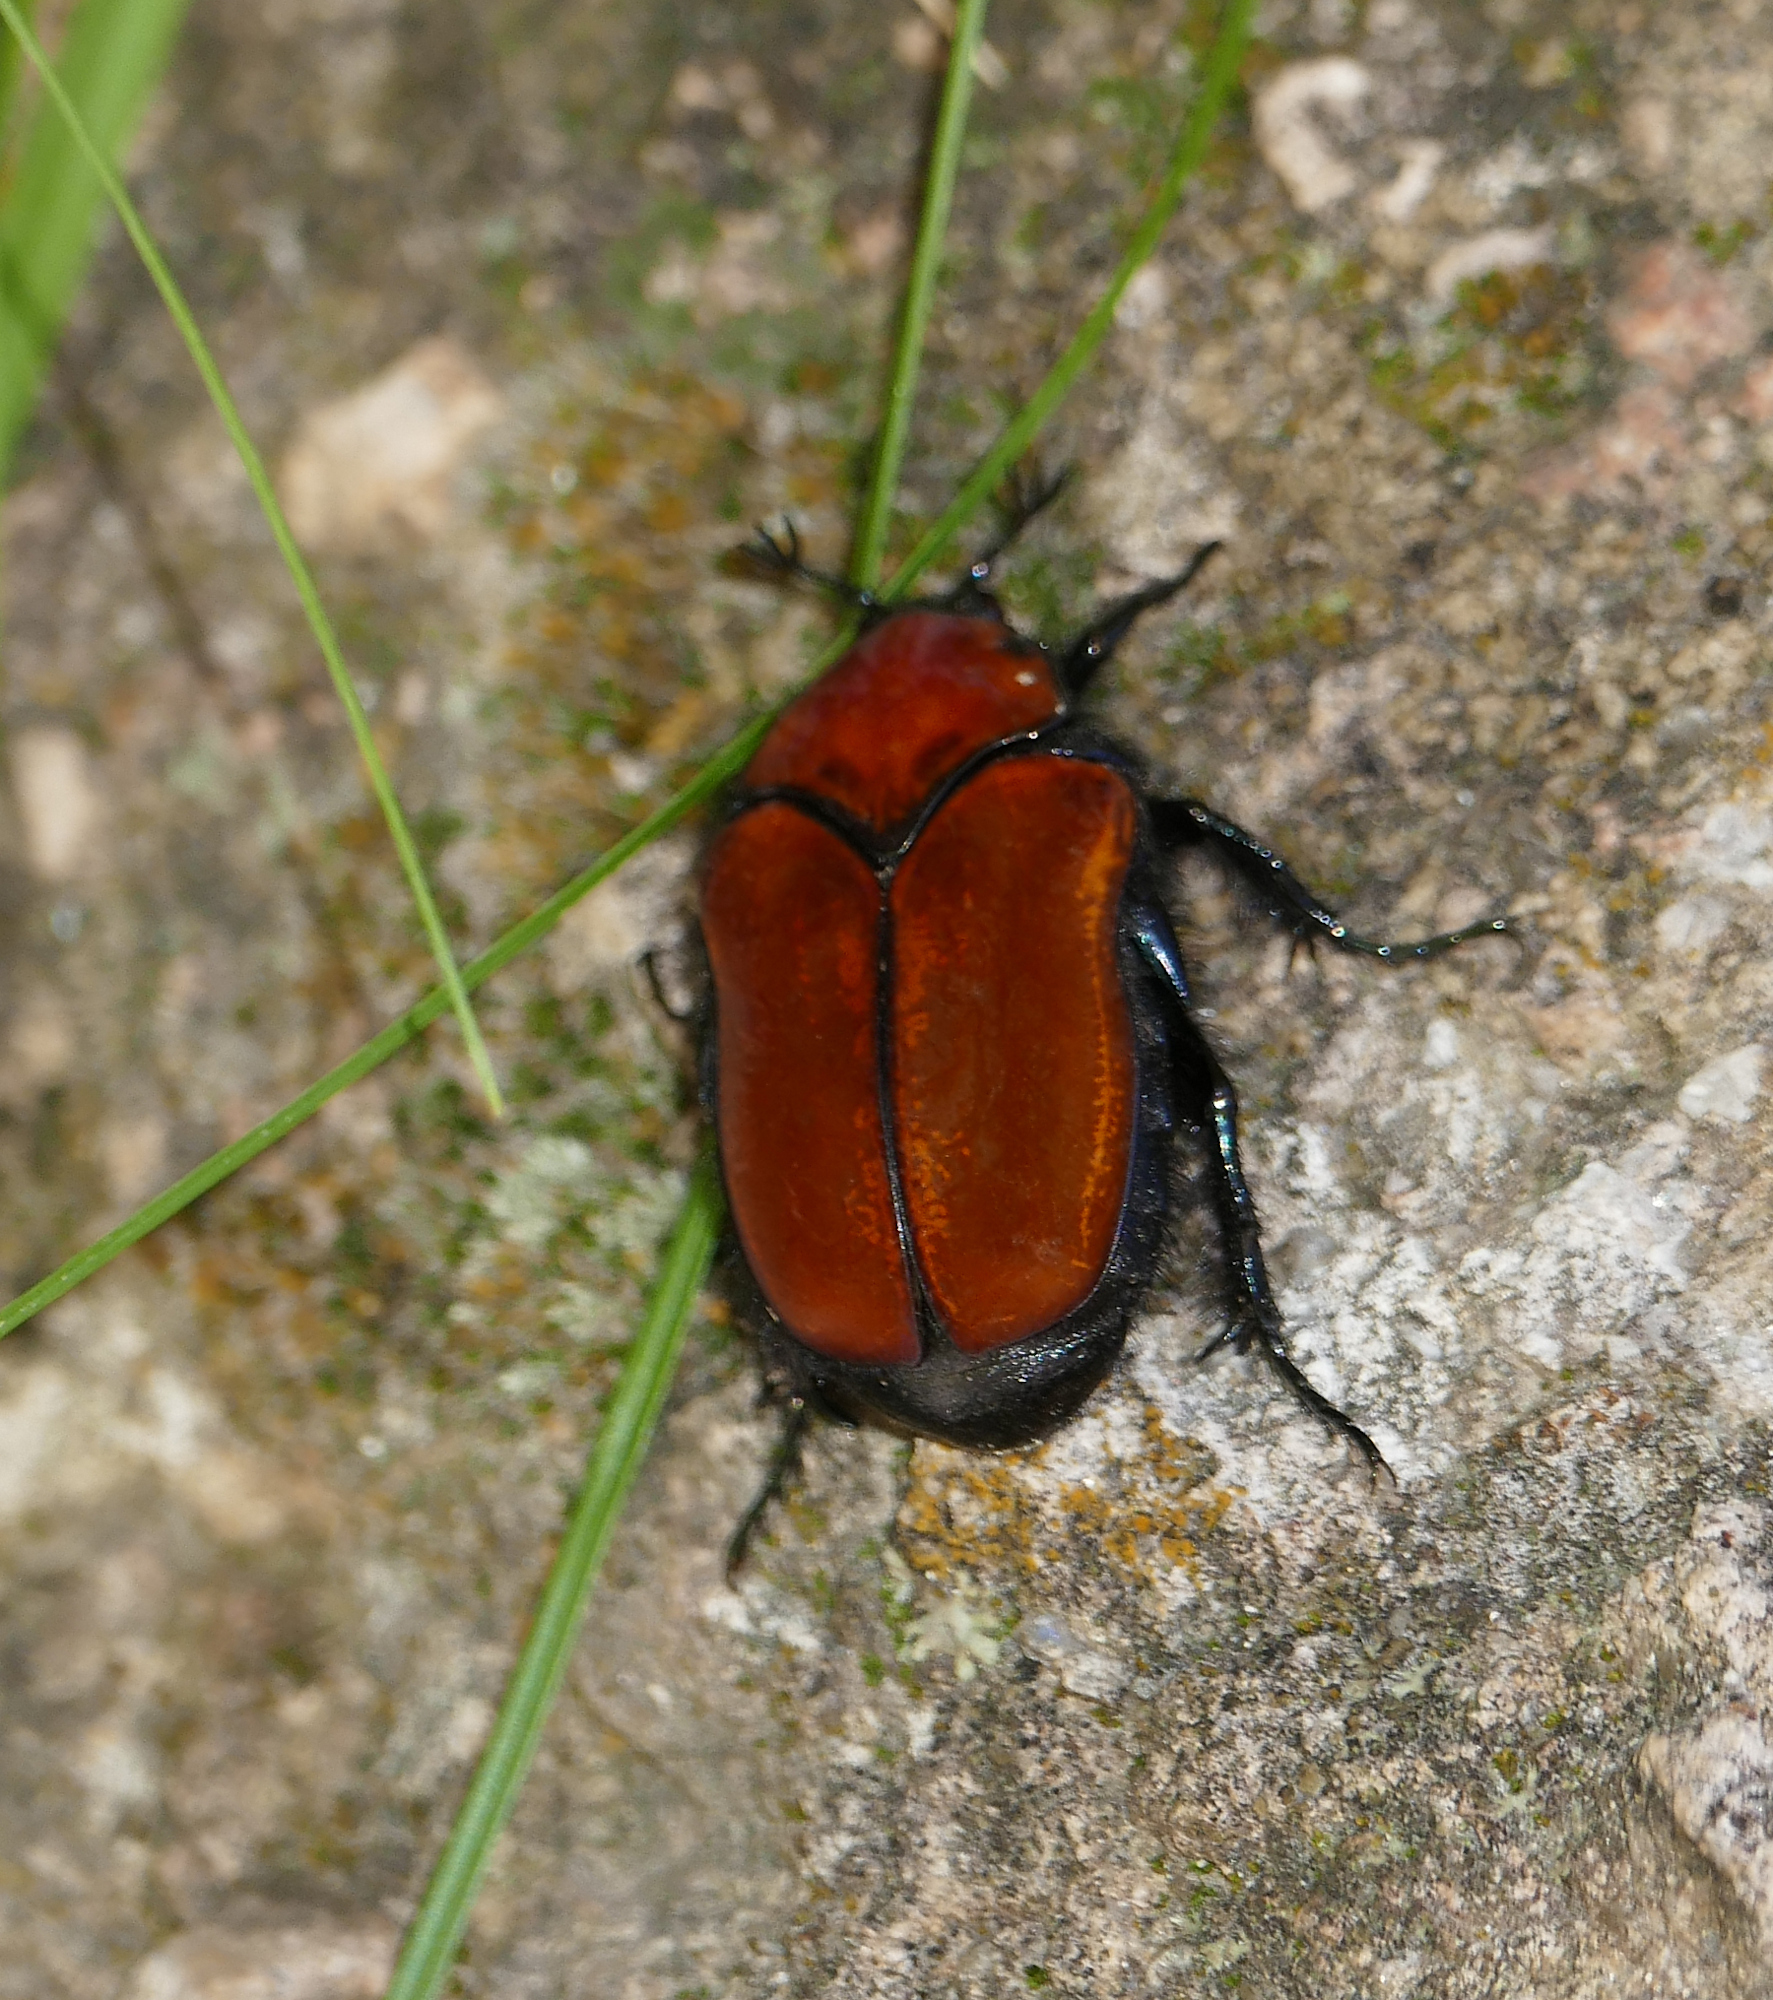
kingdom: Animalia
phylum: Arthropoda
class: Insecta
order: Coleoptera
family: Scarabaeidae
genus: Cotinis
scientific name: Cotinis impia
